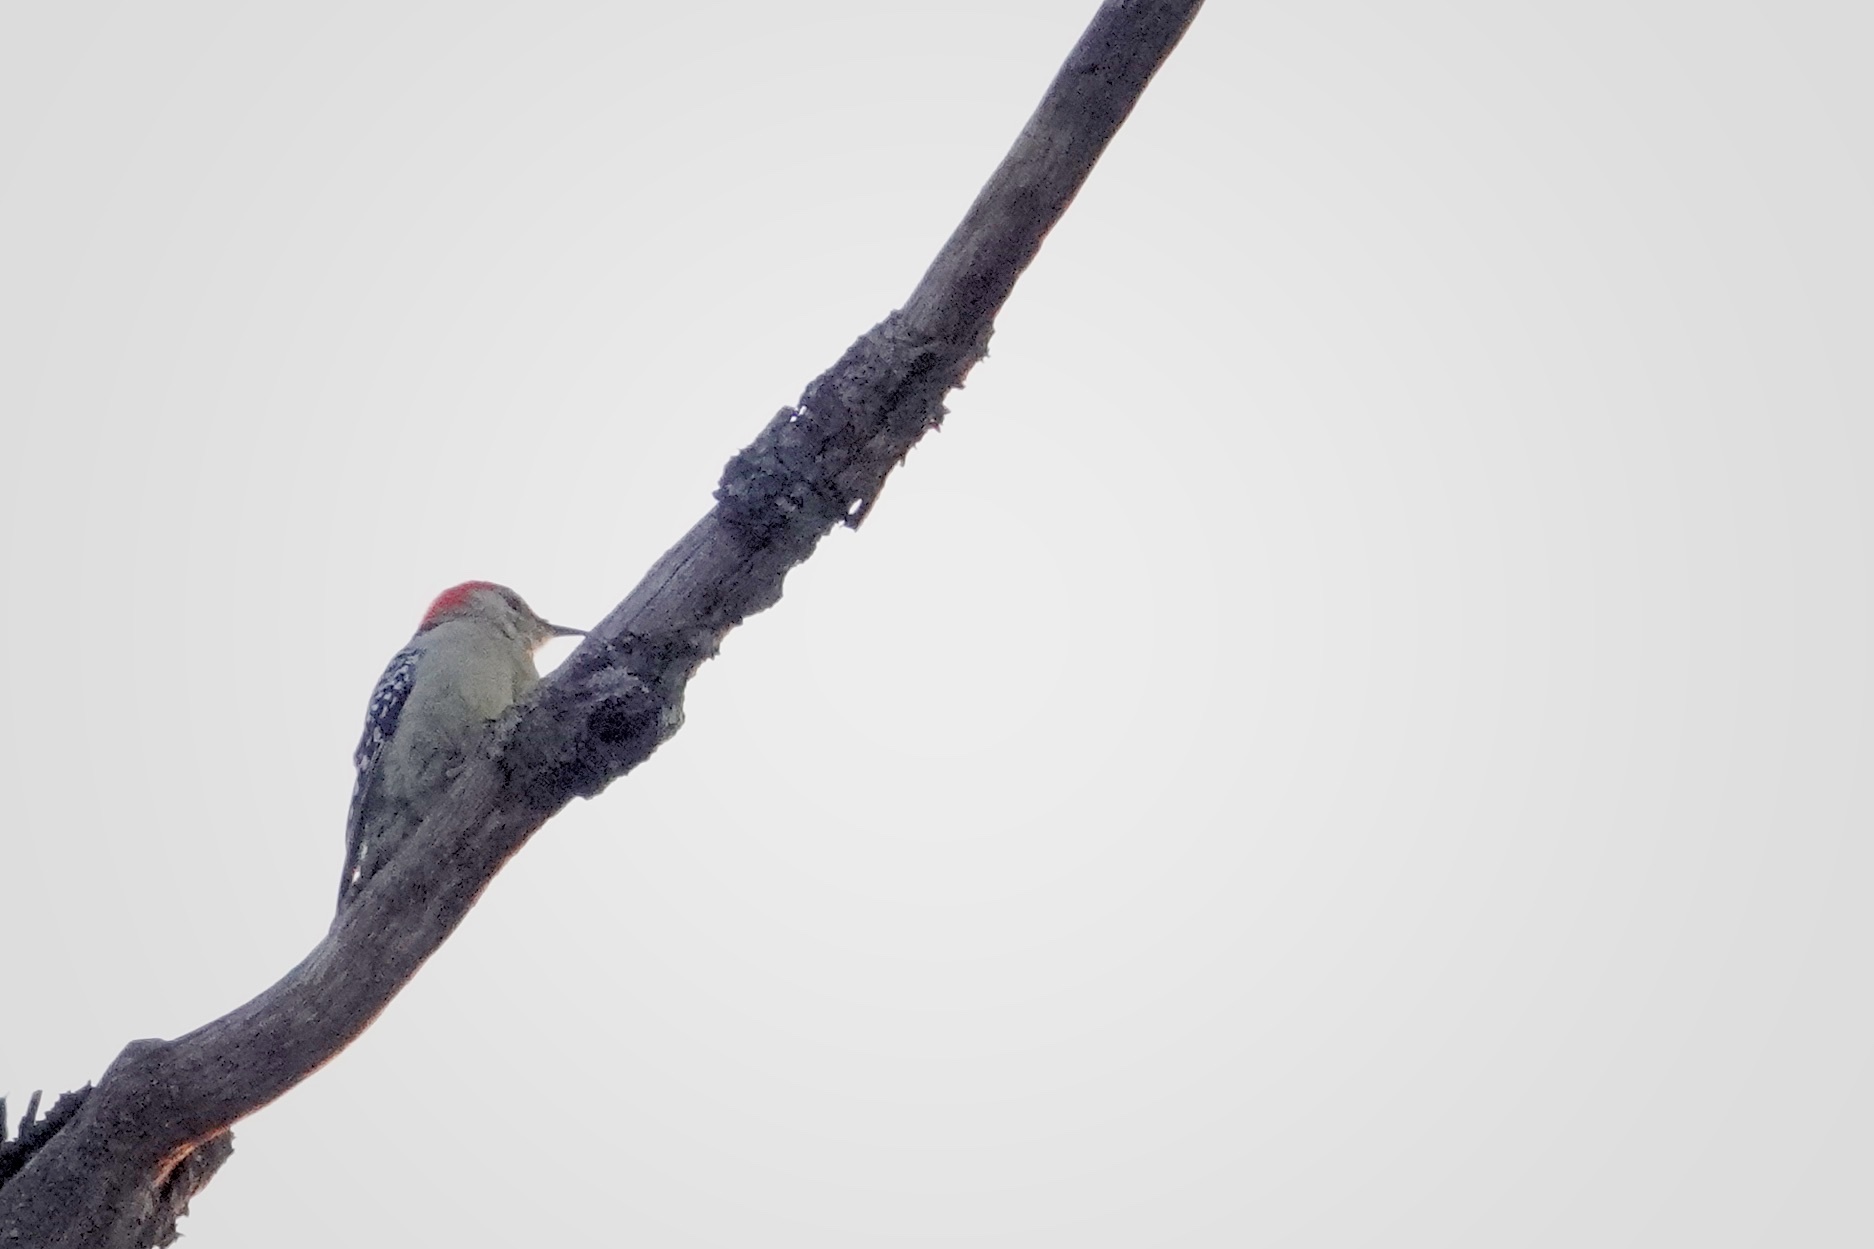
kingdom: Animalia
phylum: Chordata
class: Aves
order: Piciformes
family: Picidae
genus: Melanerpes
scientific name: Melanerpes carolinus
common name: Red-bellied woodpecker
